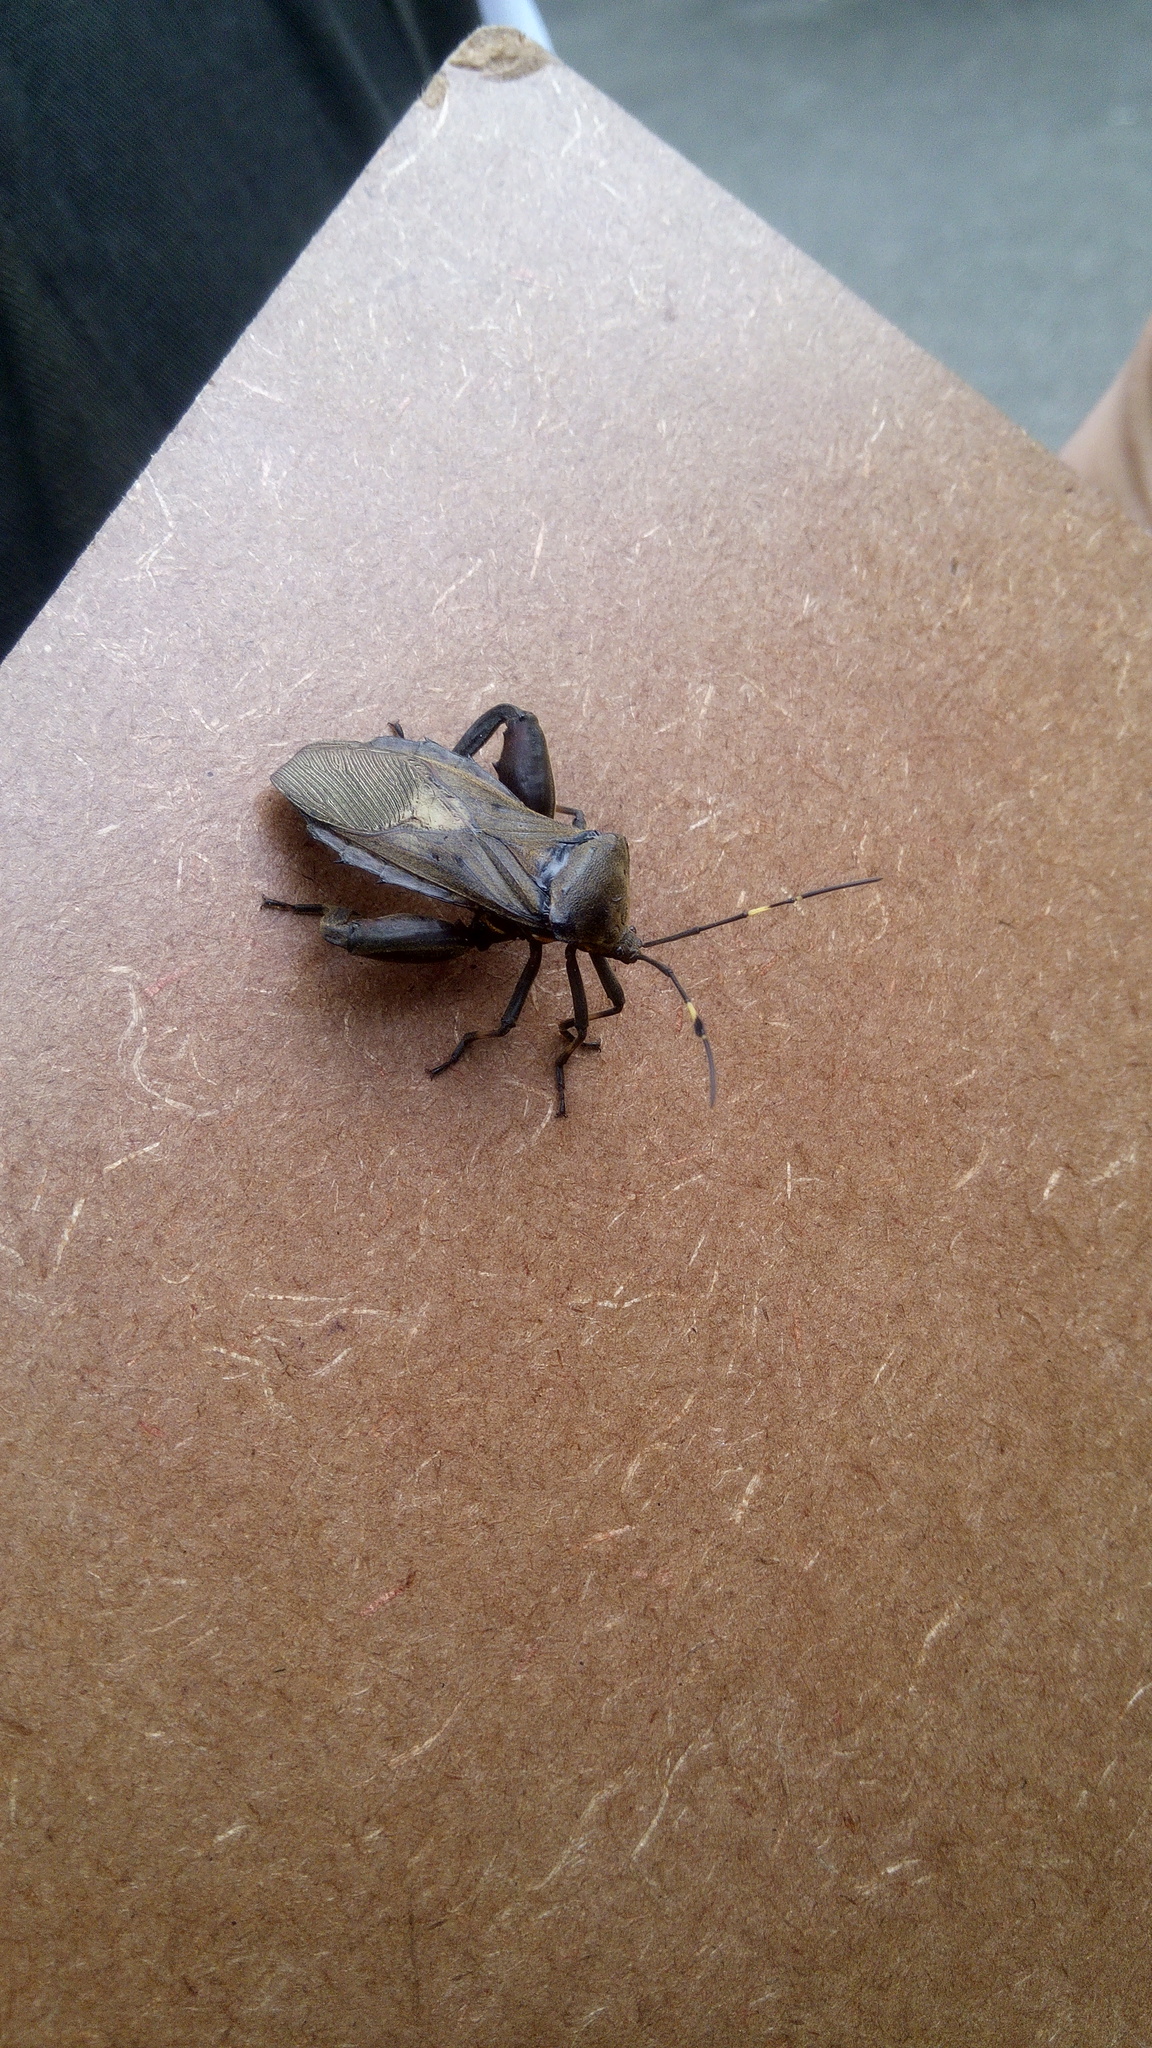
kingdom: Animalia
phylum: Arthropoda
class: Insecta
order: Hemiptera
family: Coreidae
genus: Pachylis
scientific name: Pachylis laticornis
